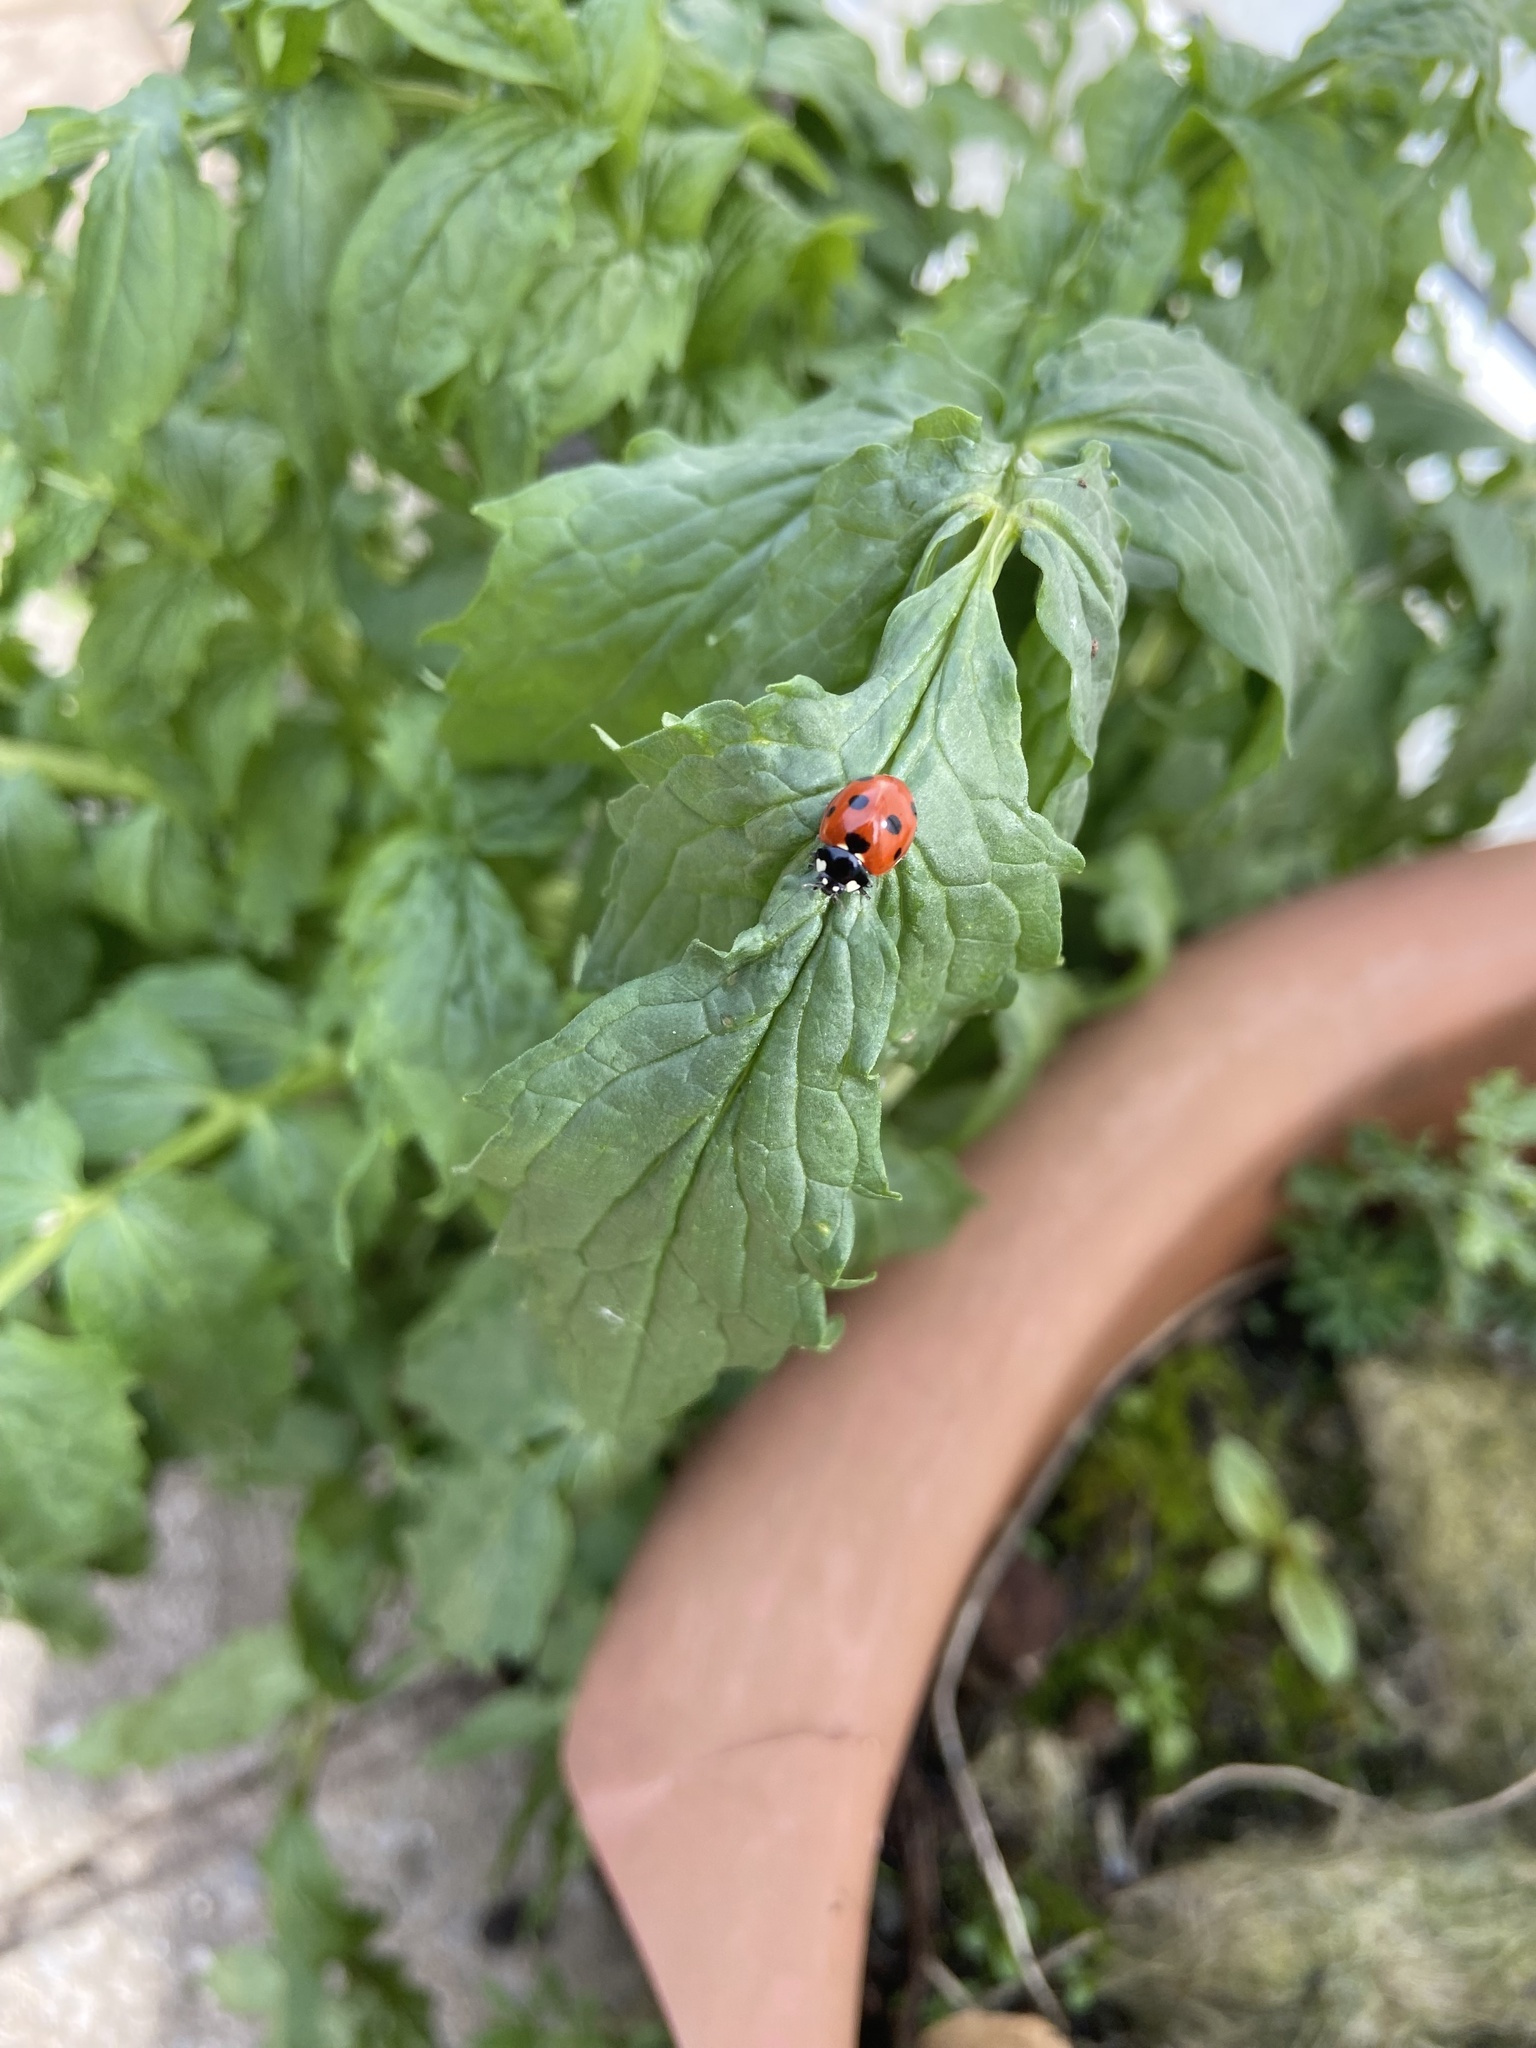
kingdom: Animalia
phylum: Arthropoda
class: Insecta
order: Coleoptera
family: Coccinellidae
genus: Coccinella
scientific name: Coccinella septempunctata
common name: Sevenspotted lady beetle
